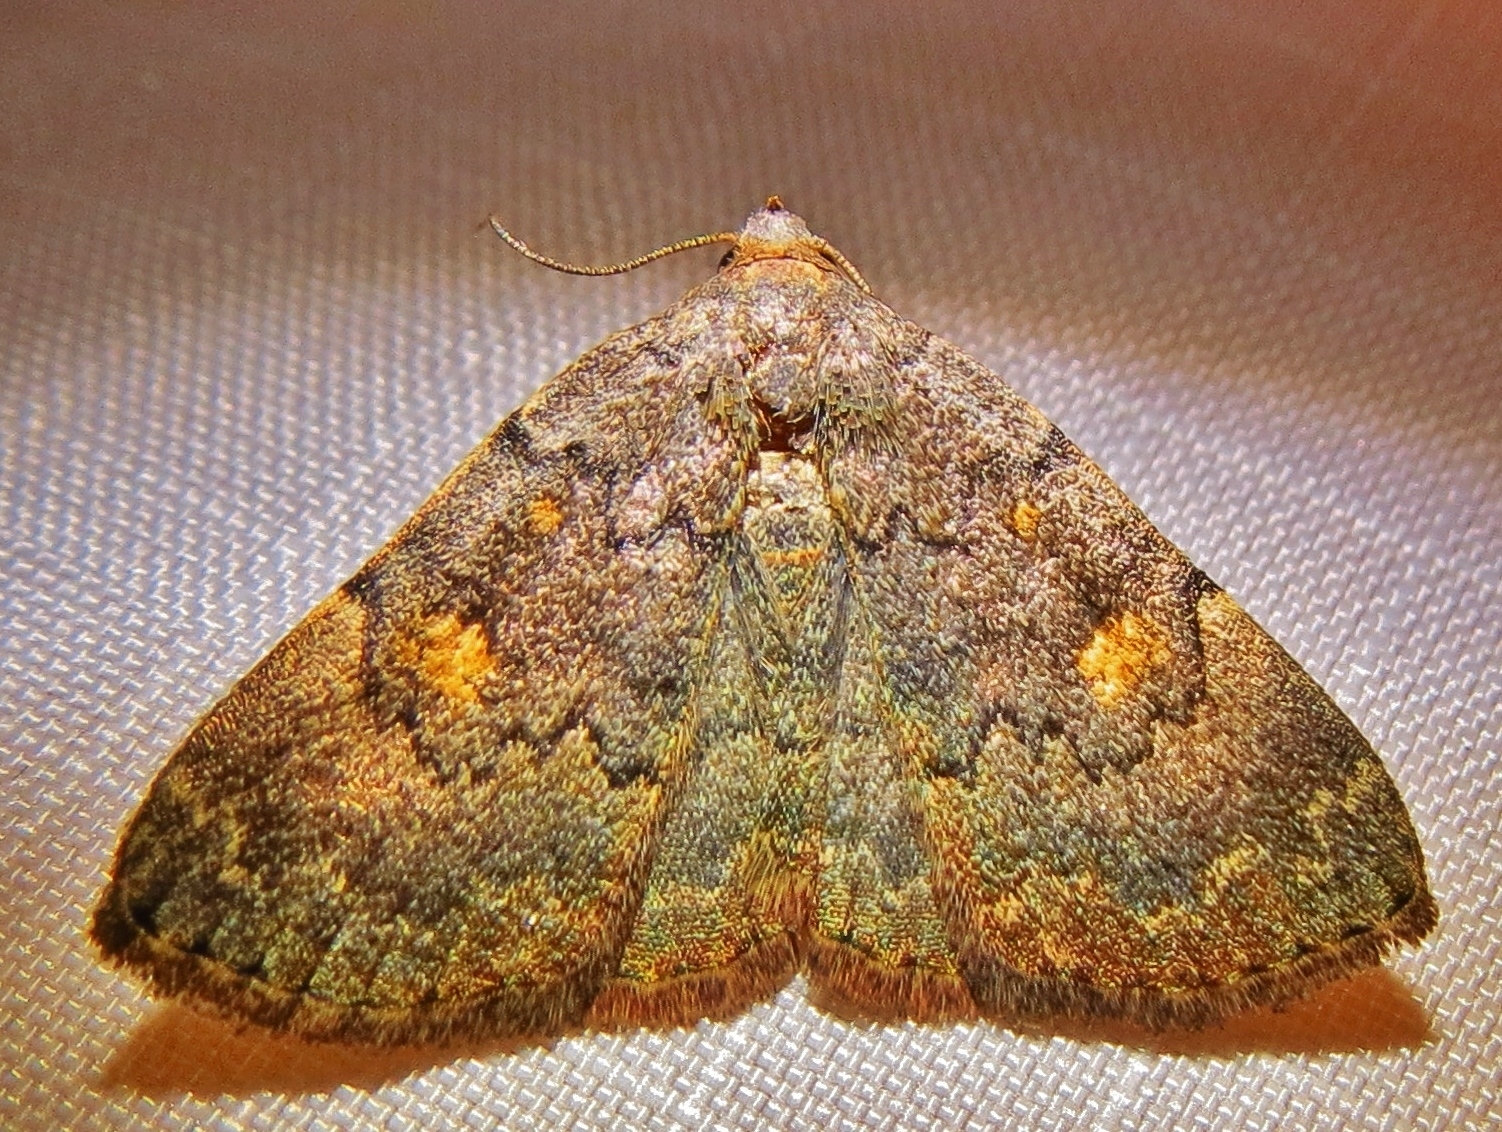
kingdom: Animalia
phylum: Arthropoda
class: Insecta
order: Lepidoptera
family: Erebidae
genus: Idia
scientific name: Idia aemula
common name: Common idia moth
